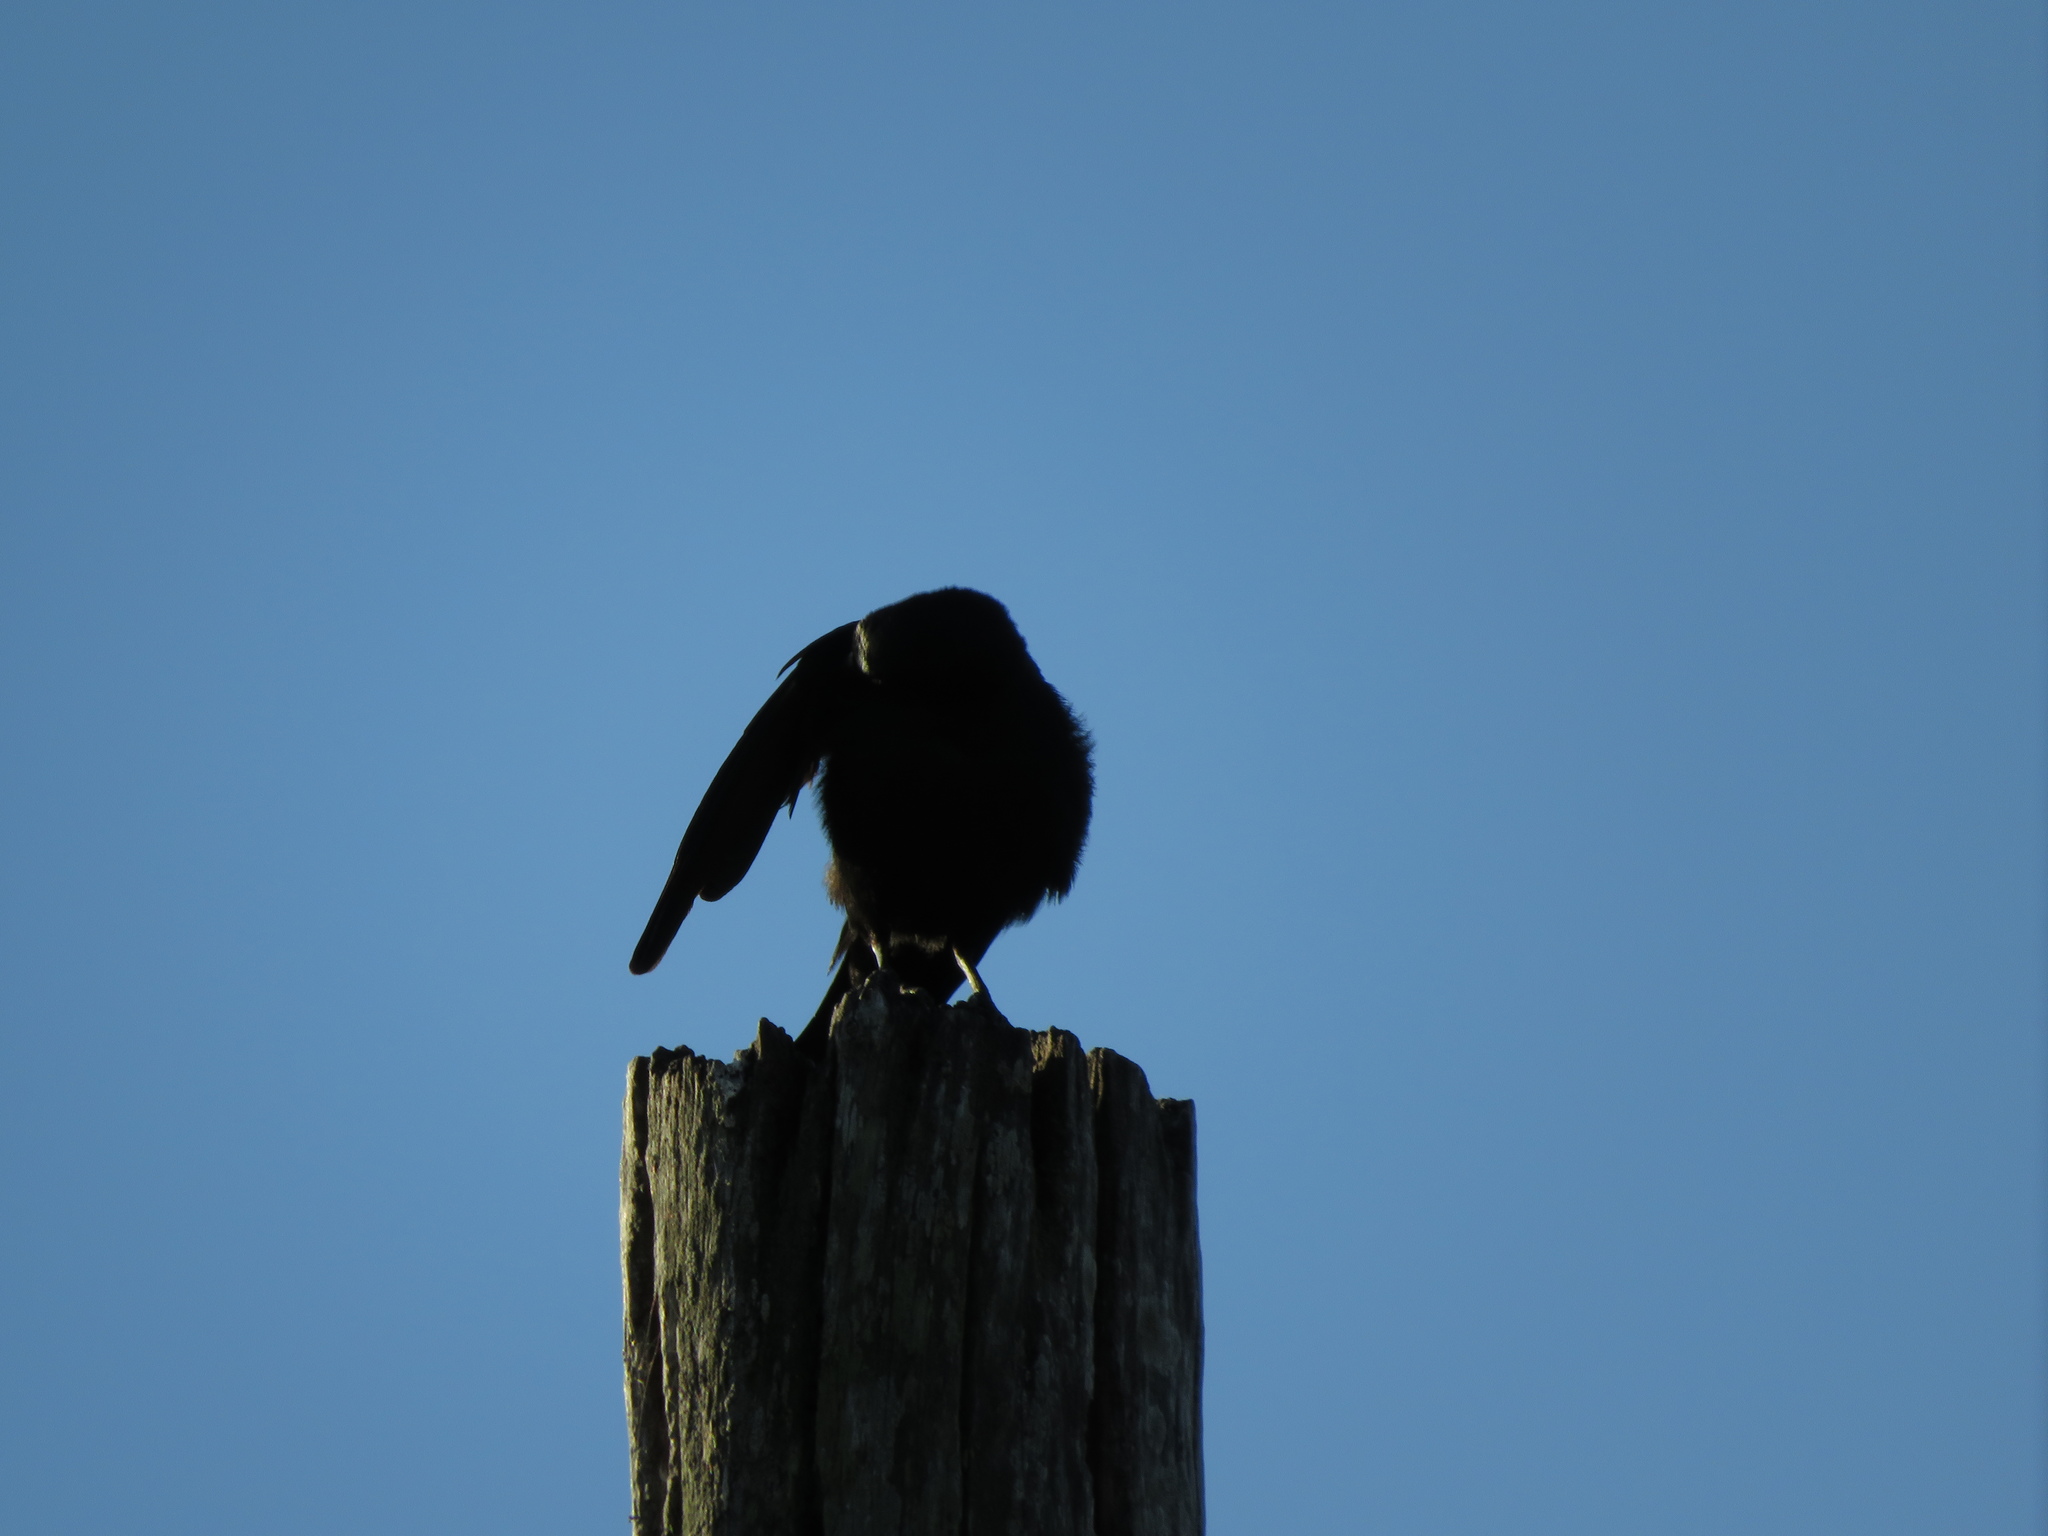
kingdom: Animalia
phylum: Chordata
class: Aves
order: Passeriformes
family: Icteridae
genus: Molothrus
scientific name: Molothrus rufoaxillaris
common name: Screaming cowbird
